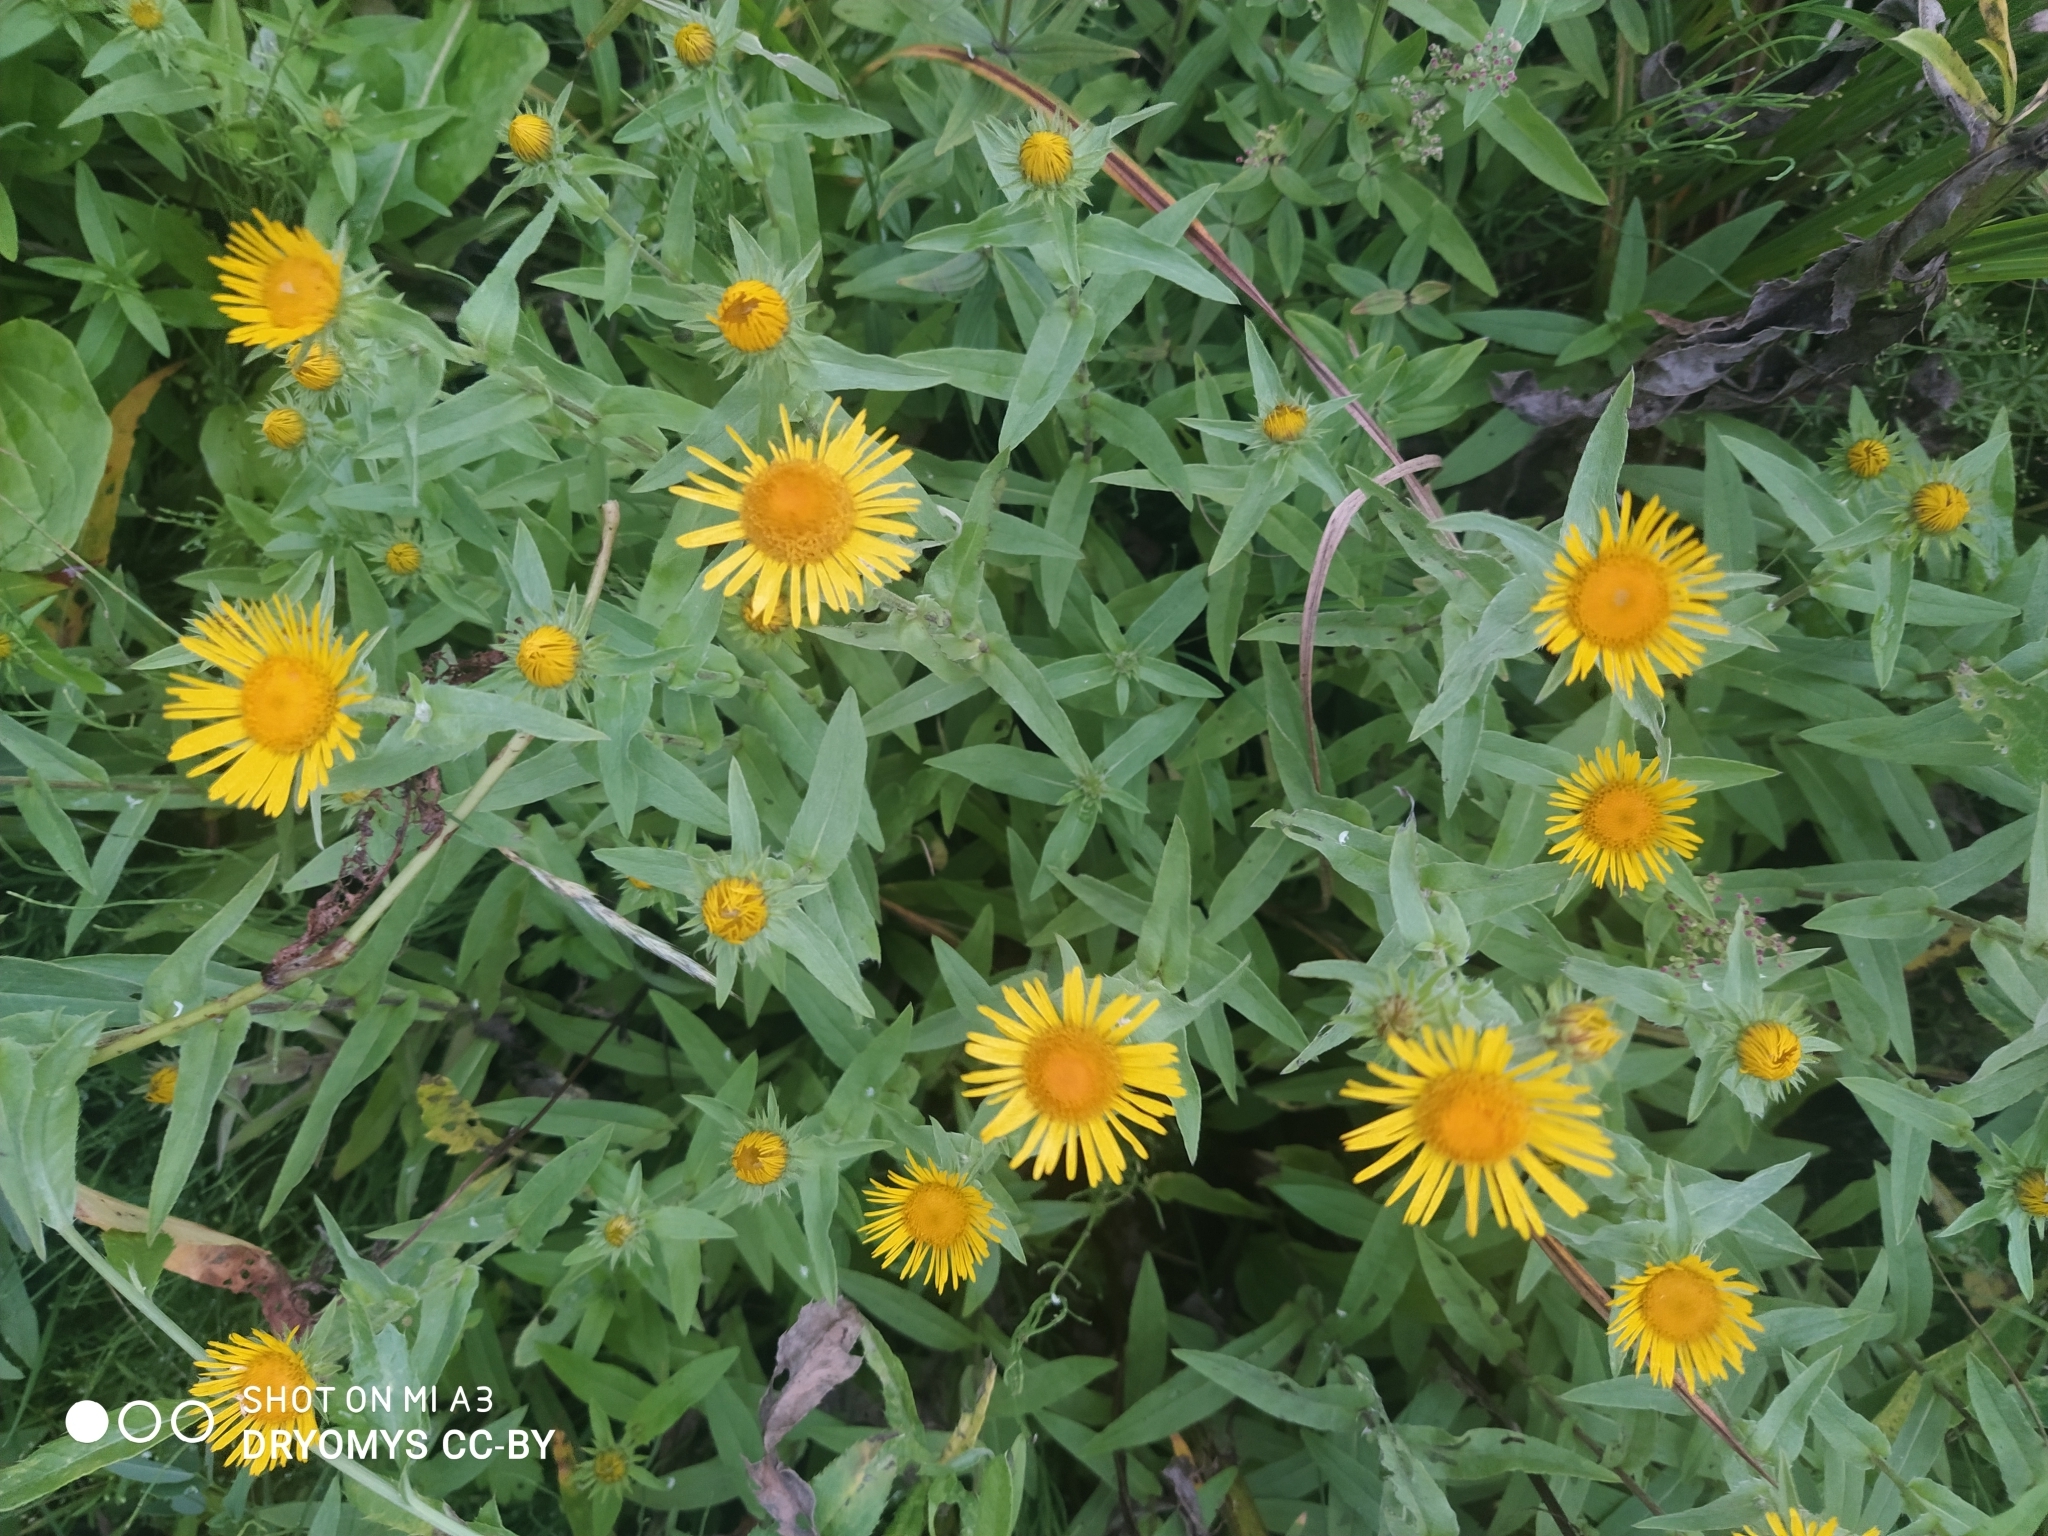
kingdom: Plantae
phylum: Tracheophyta
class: Magnoliopsida
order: Asterales
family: Asteraceae
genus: Pentanema
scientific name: Pentanema britannicum
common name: British elecampane
